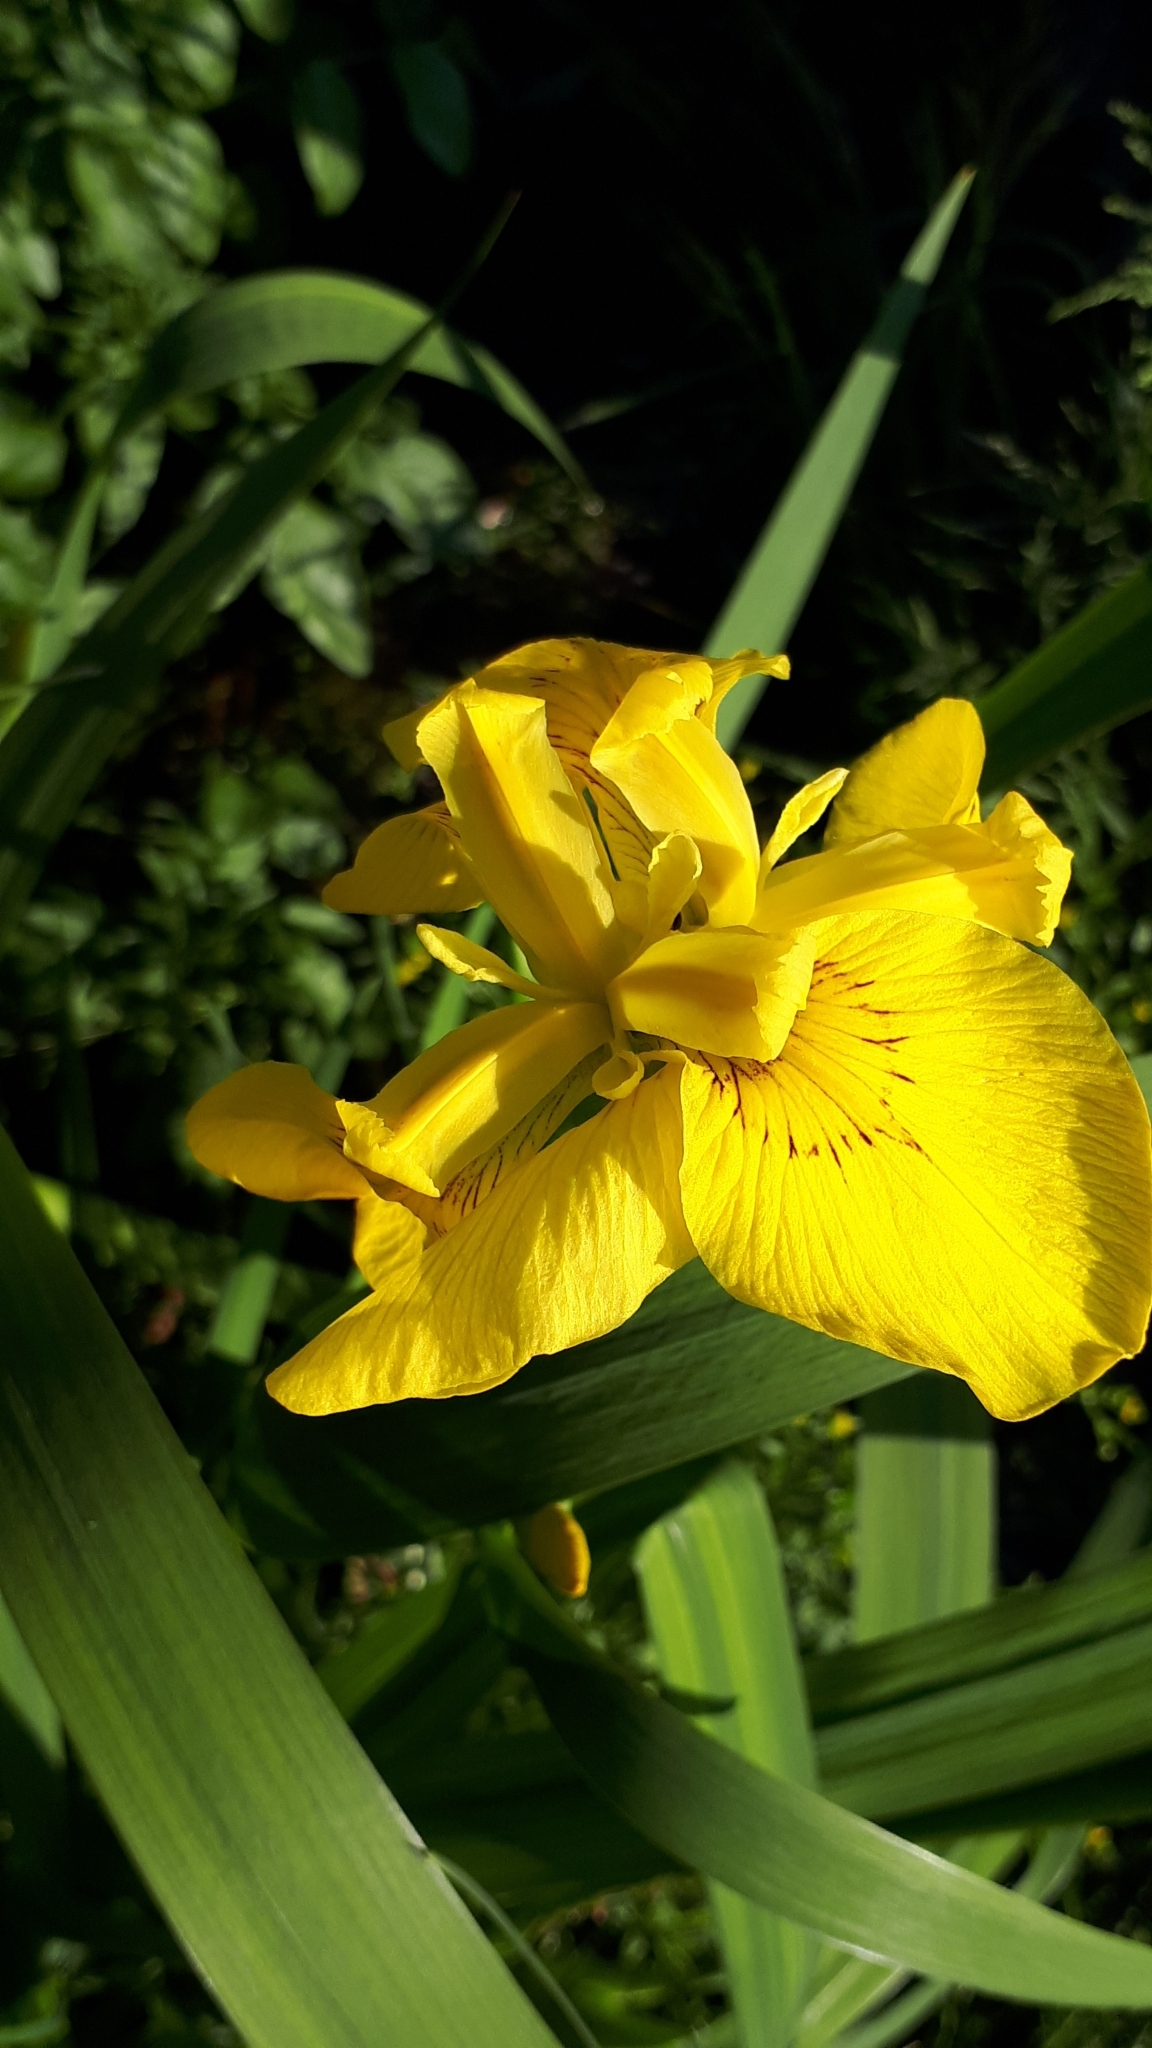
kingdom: Plantae
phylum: Tracheophyta
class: Liliopsida
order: Asparagales
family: Iridaceae
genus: Iris
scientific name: Iris pseudacorus
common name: Yellow flag
